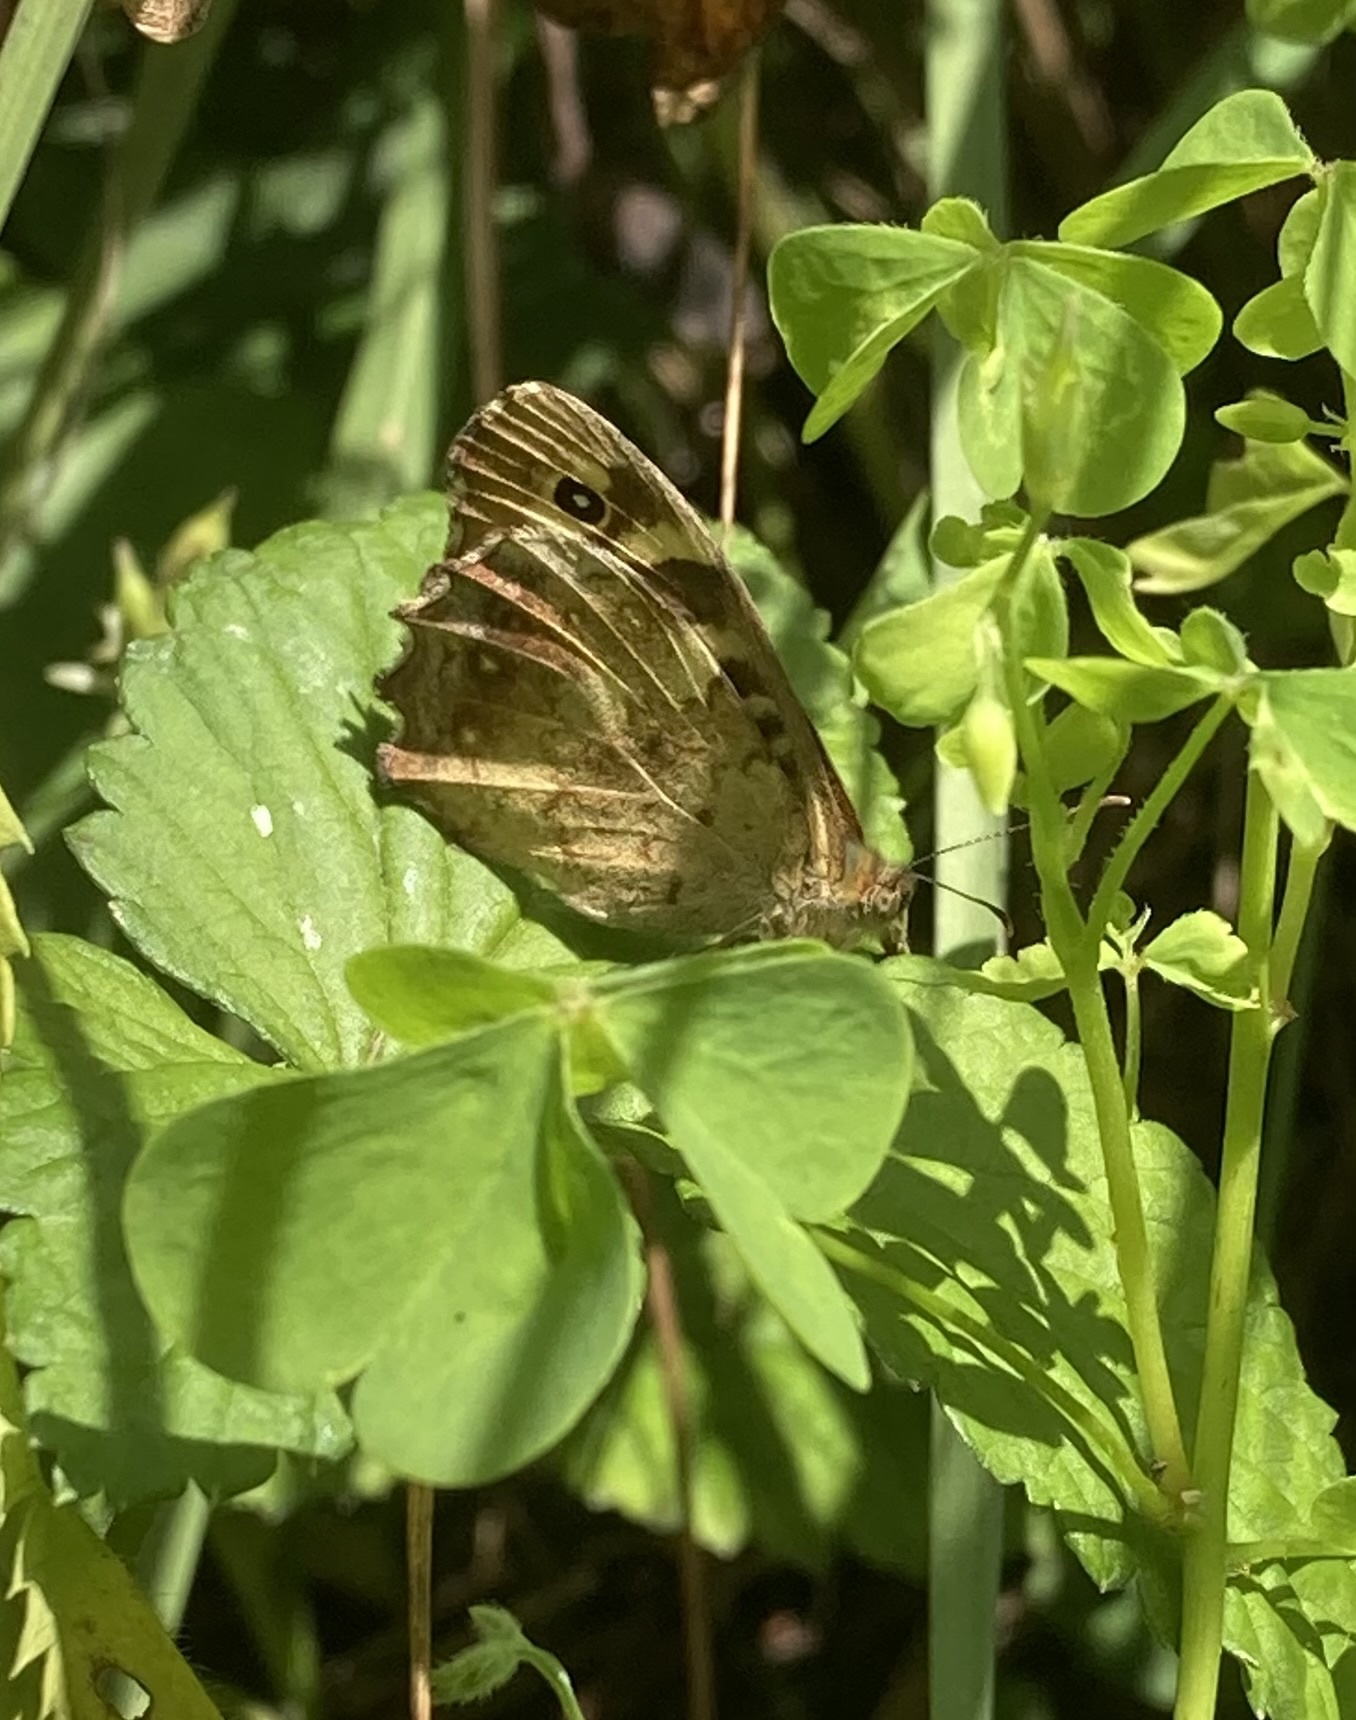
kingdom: Animalia
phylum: Arthropoda
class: Insecta
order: Lepidoptera
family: Nymphalidae
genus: Pararge
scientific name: Pararge aegeria
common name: Speckled wood
